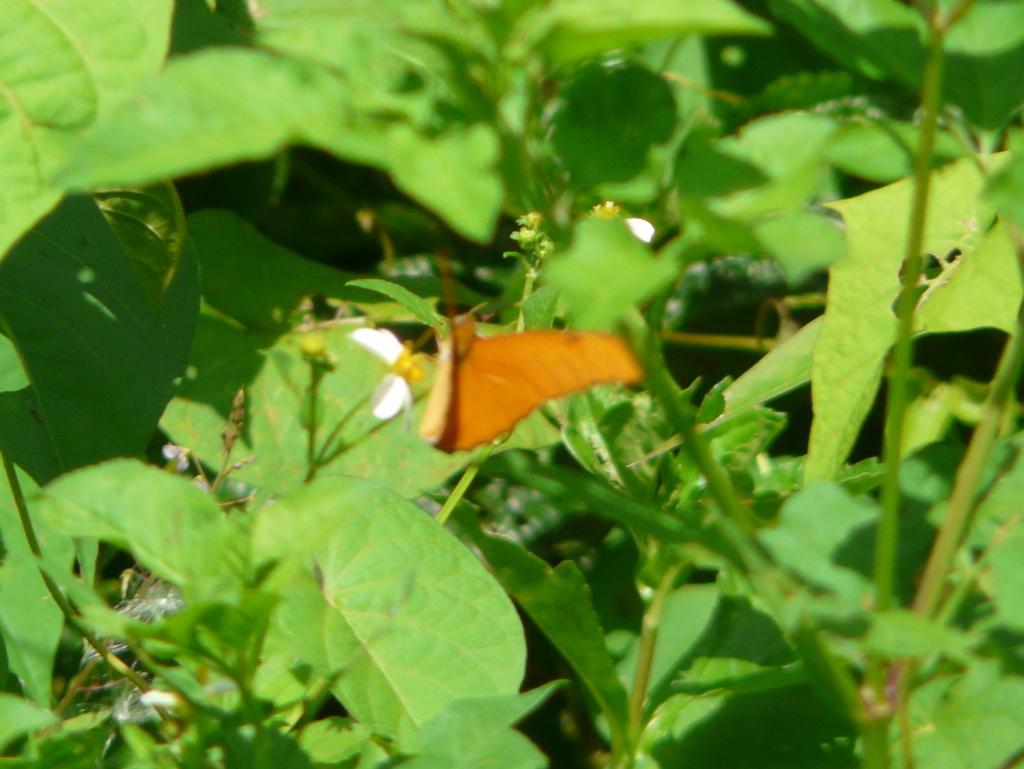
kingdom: Animalia
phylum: Arthropoda
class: Insecta
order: Lepidoptera
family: Nymphalidae
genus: Dryas
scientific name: Dryas iulia
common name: Flambeau
